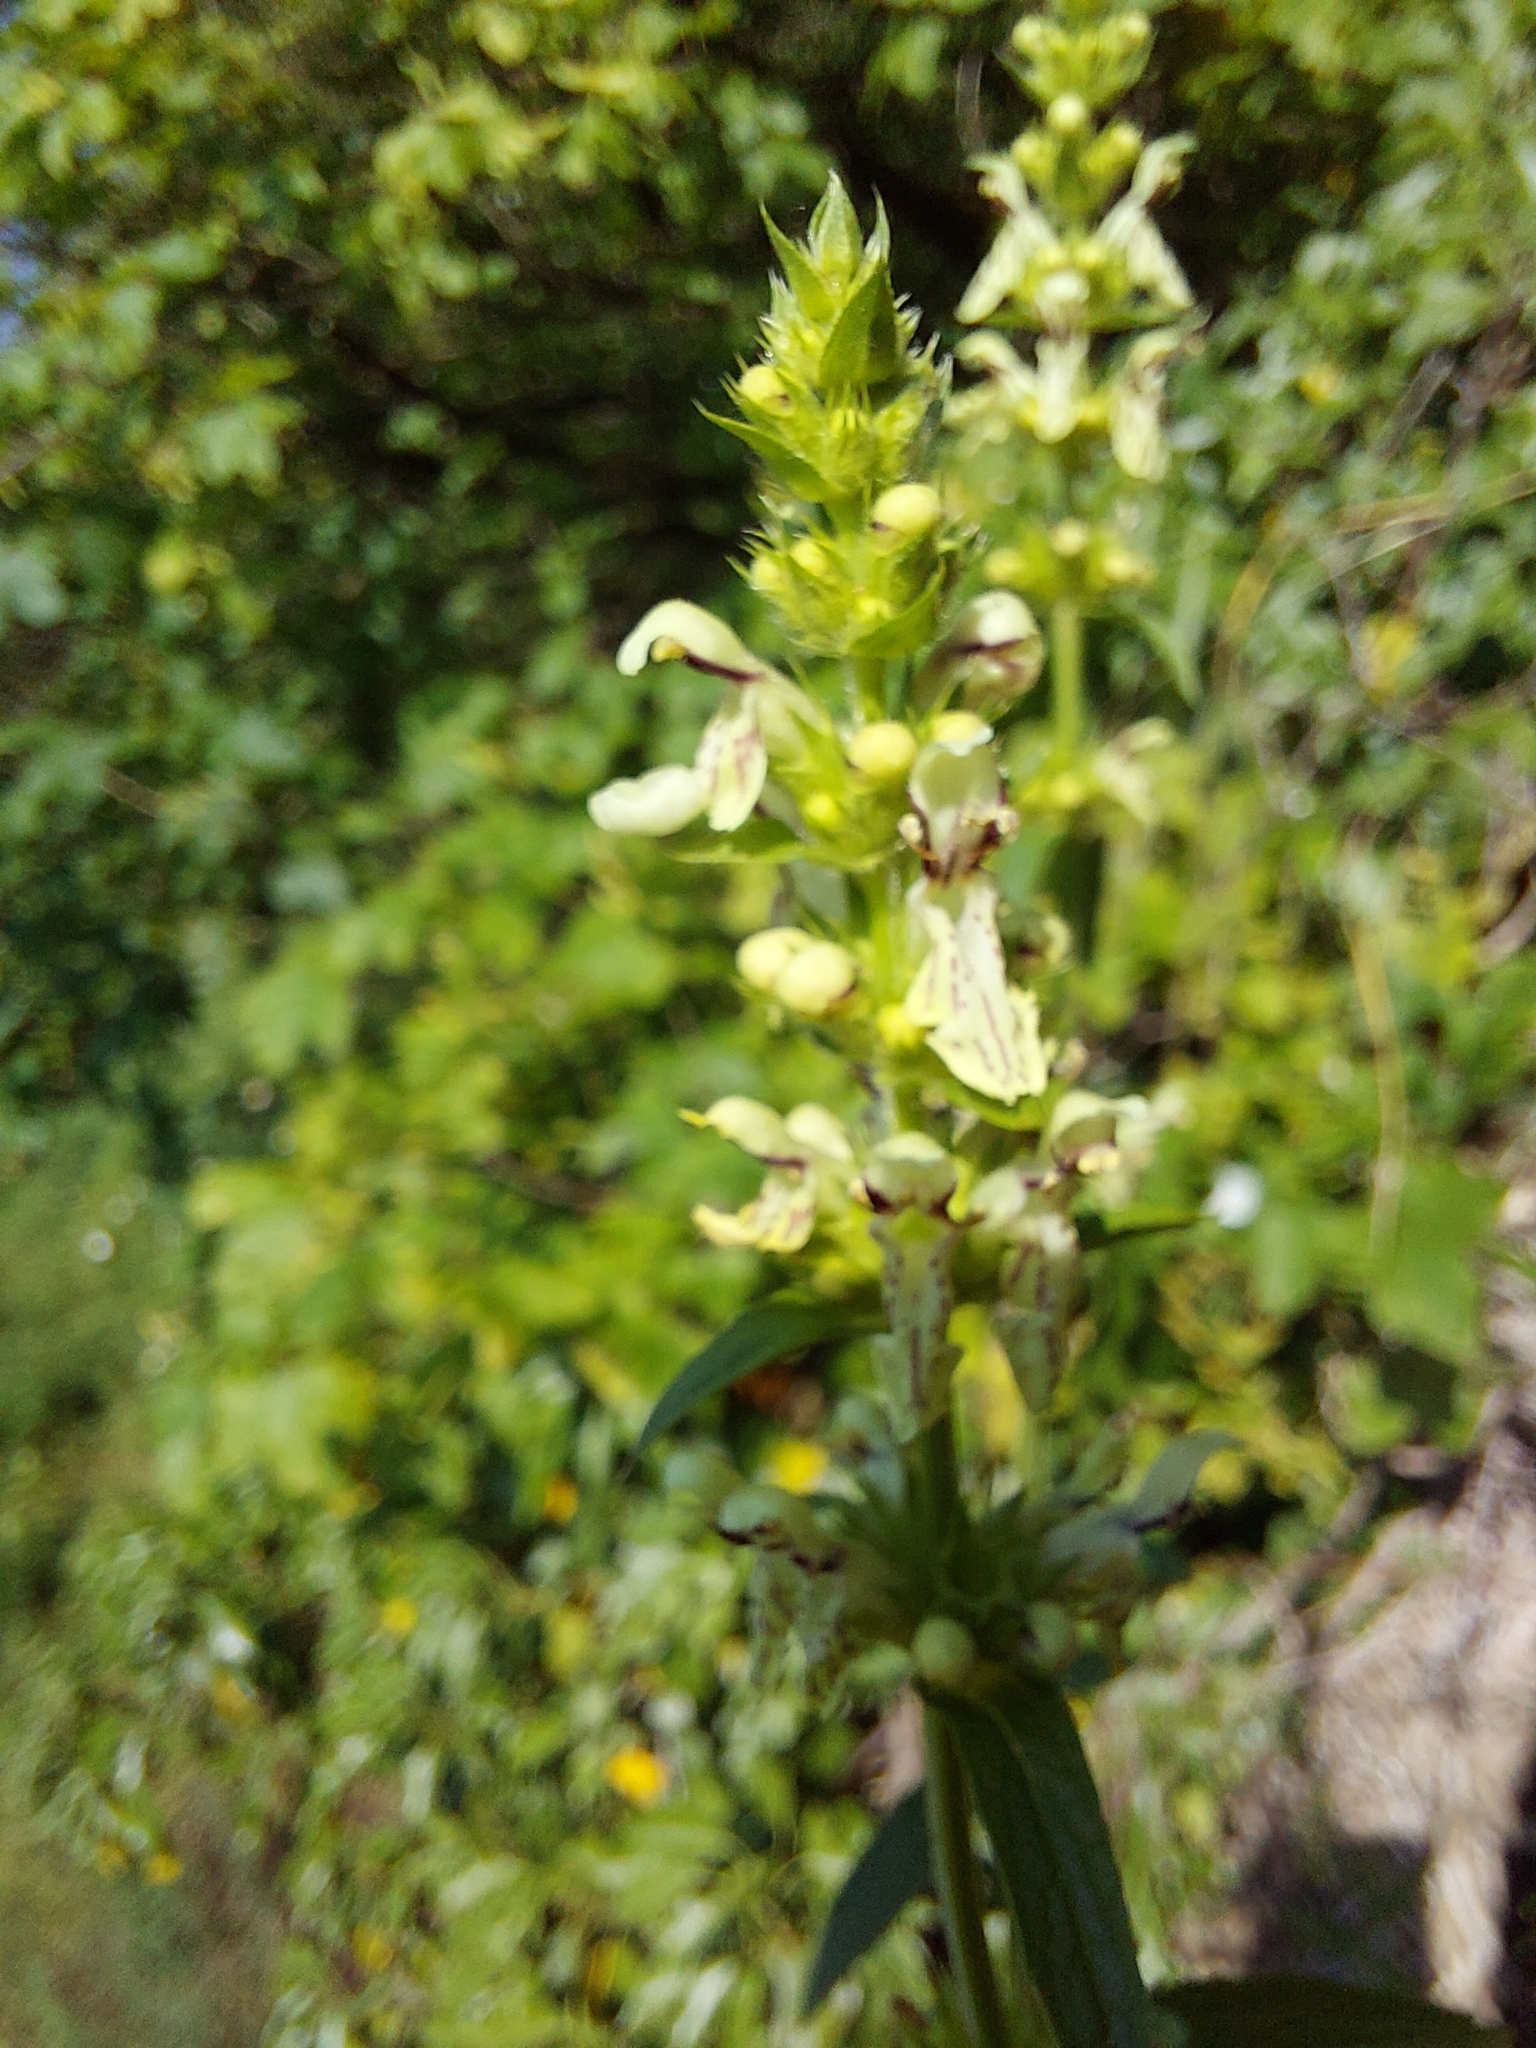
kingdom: Plantae
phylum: Tracheophyta
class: Magnoliopsida
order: Lamiales
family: Lamiaceae
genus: Stachys
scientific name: Stachys recta
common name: Perennial yellow-woundwort
